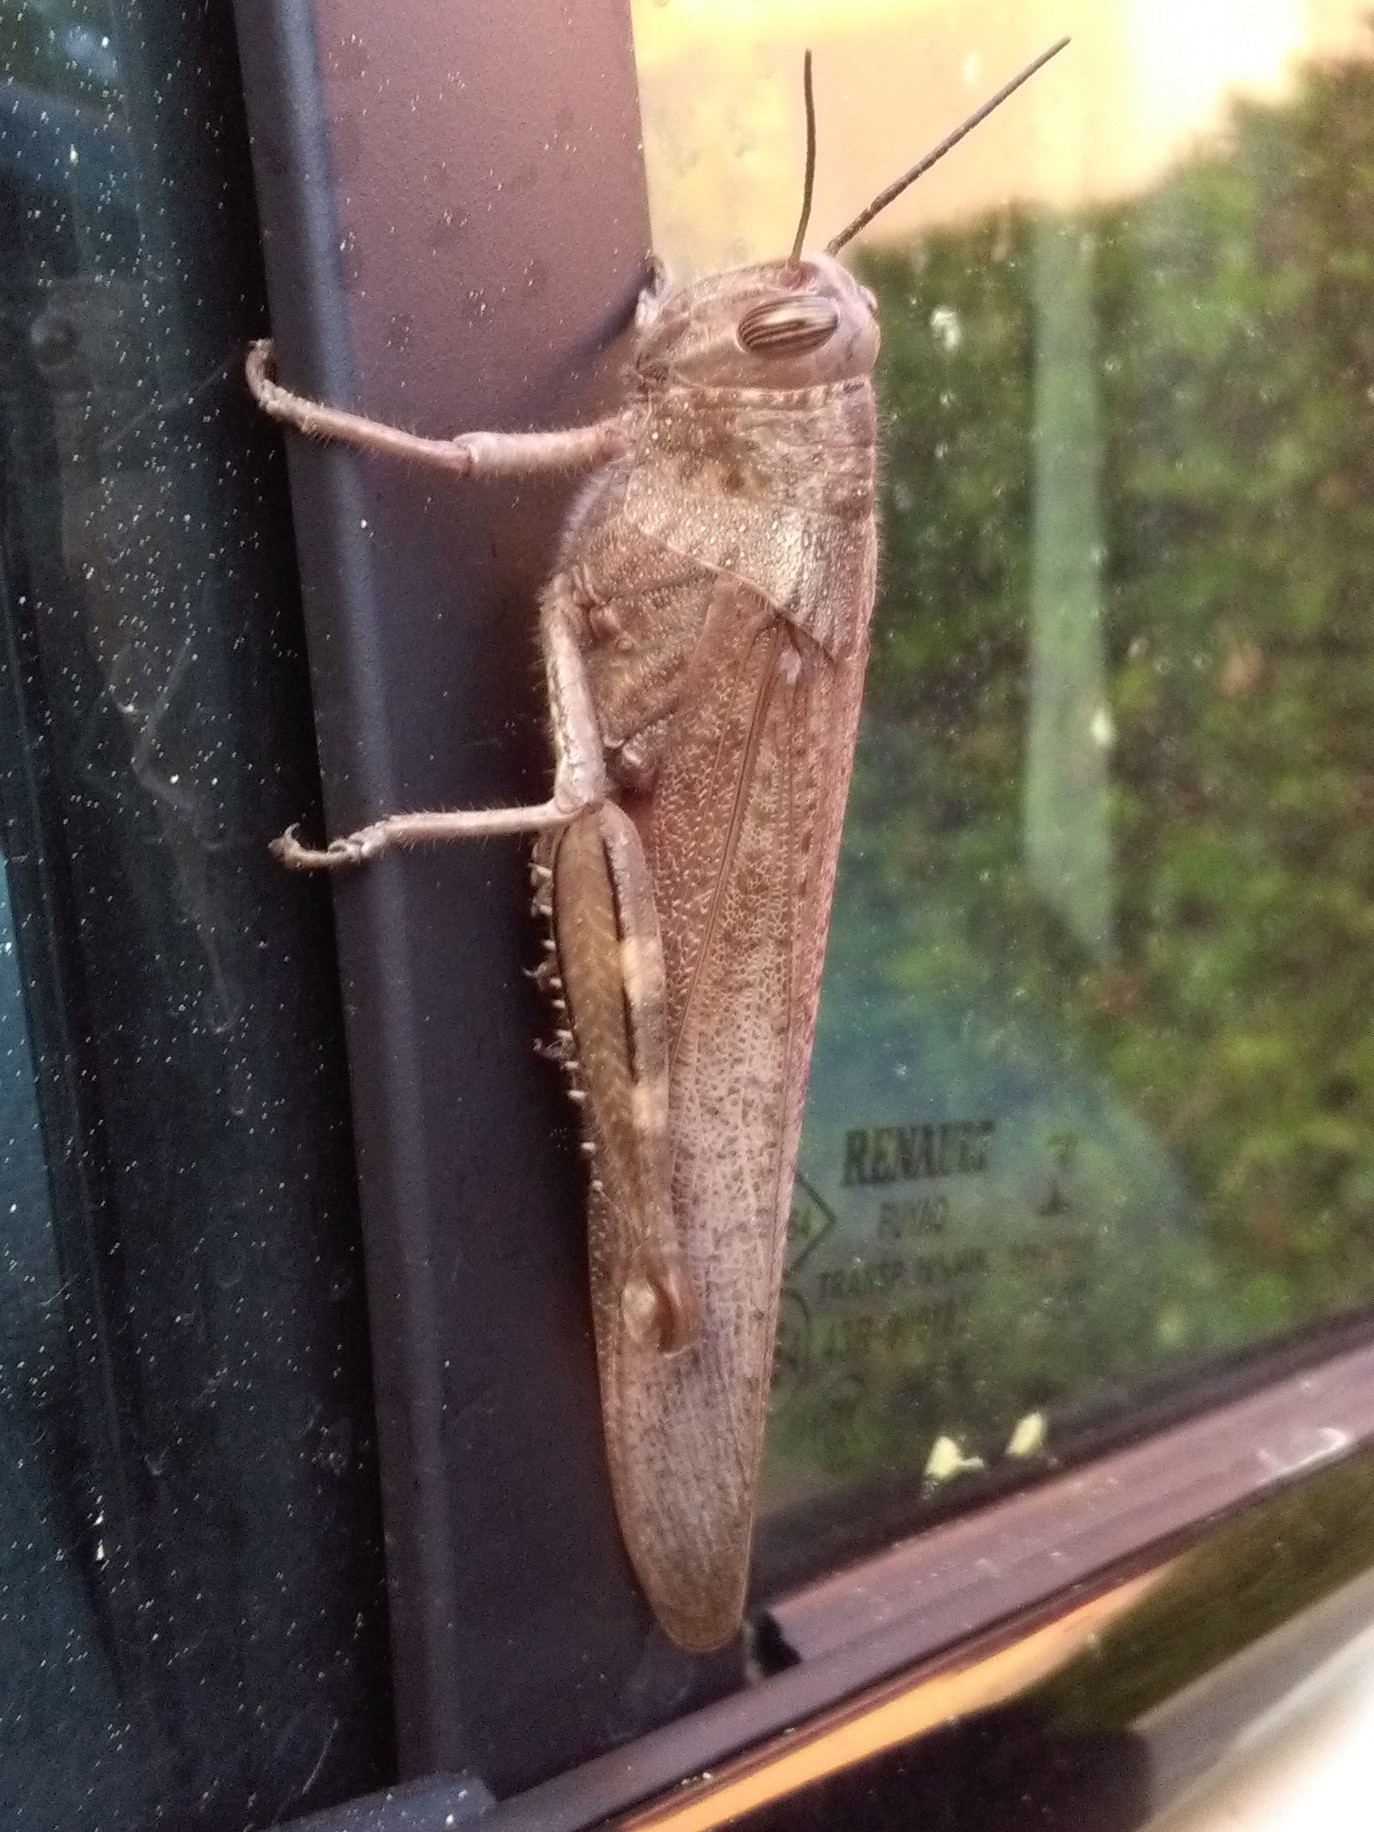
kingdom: Animalia
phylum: Arthropoda
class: Insecta
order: Orthoptera
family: Acrididae
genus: Anacridium
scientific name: Anacridium aegyptium
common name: Egyptian grasshopper
